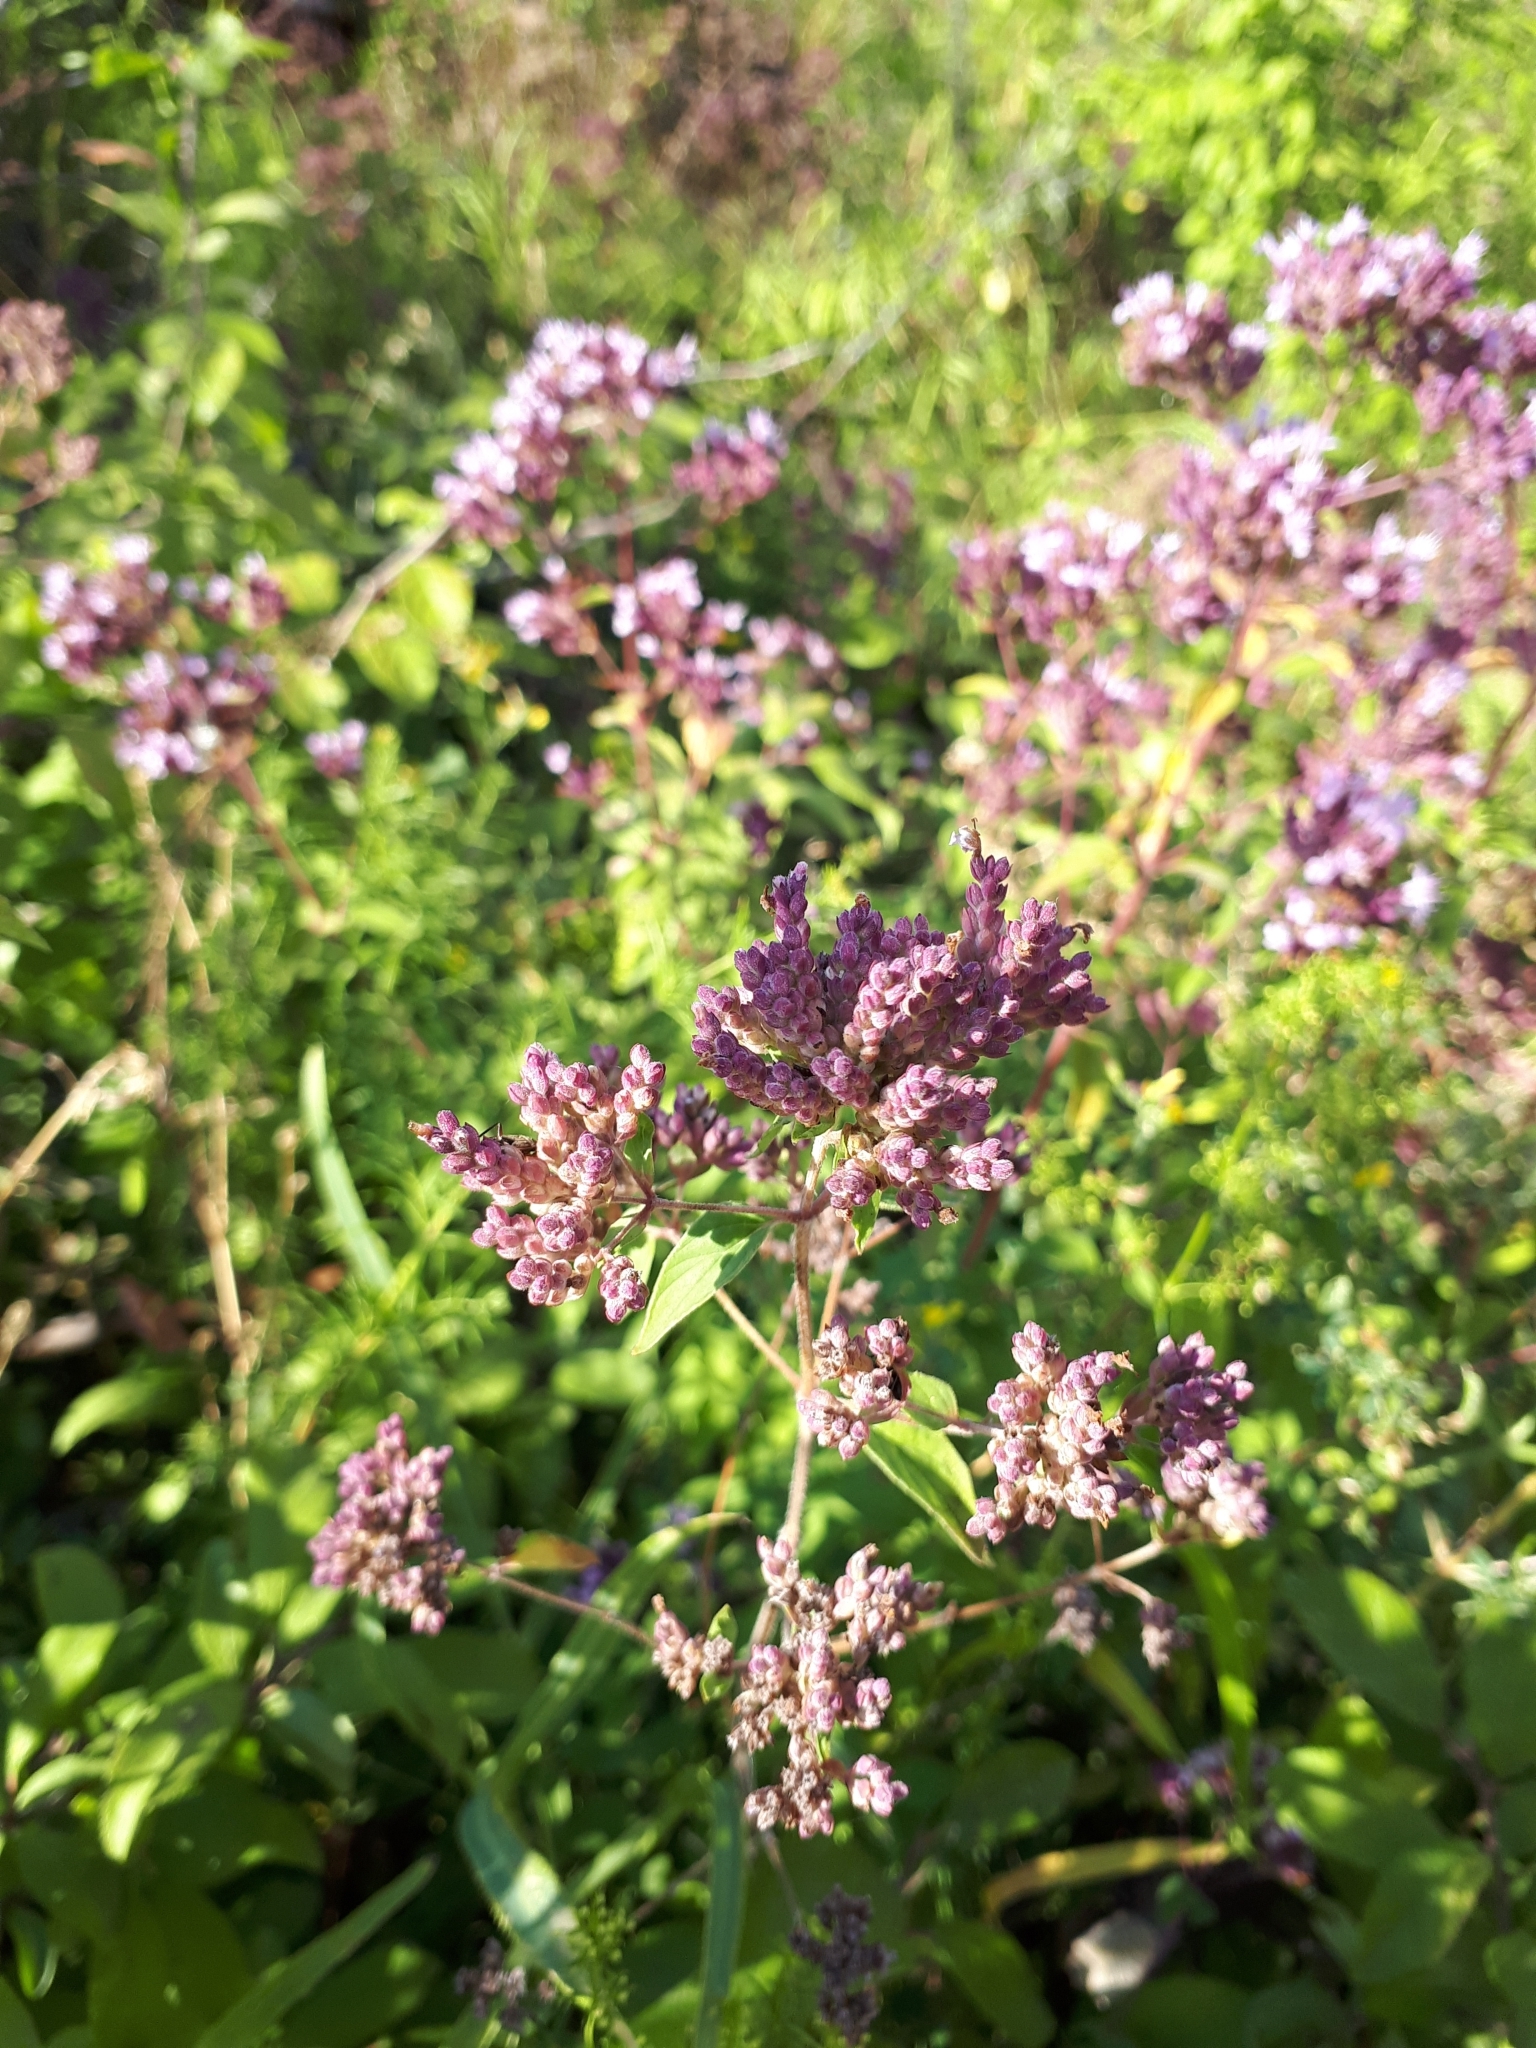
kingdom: Plantae
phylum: Tracheophyta
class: Magnoliopsida
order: Lamiales
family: Lamiaceae
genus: Origanum
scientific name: Origanum vulgare
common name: Wild marjoram
